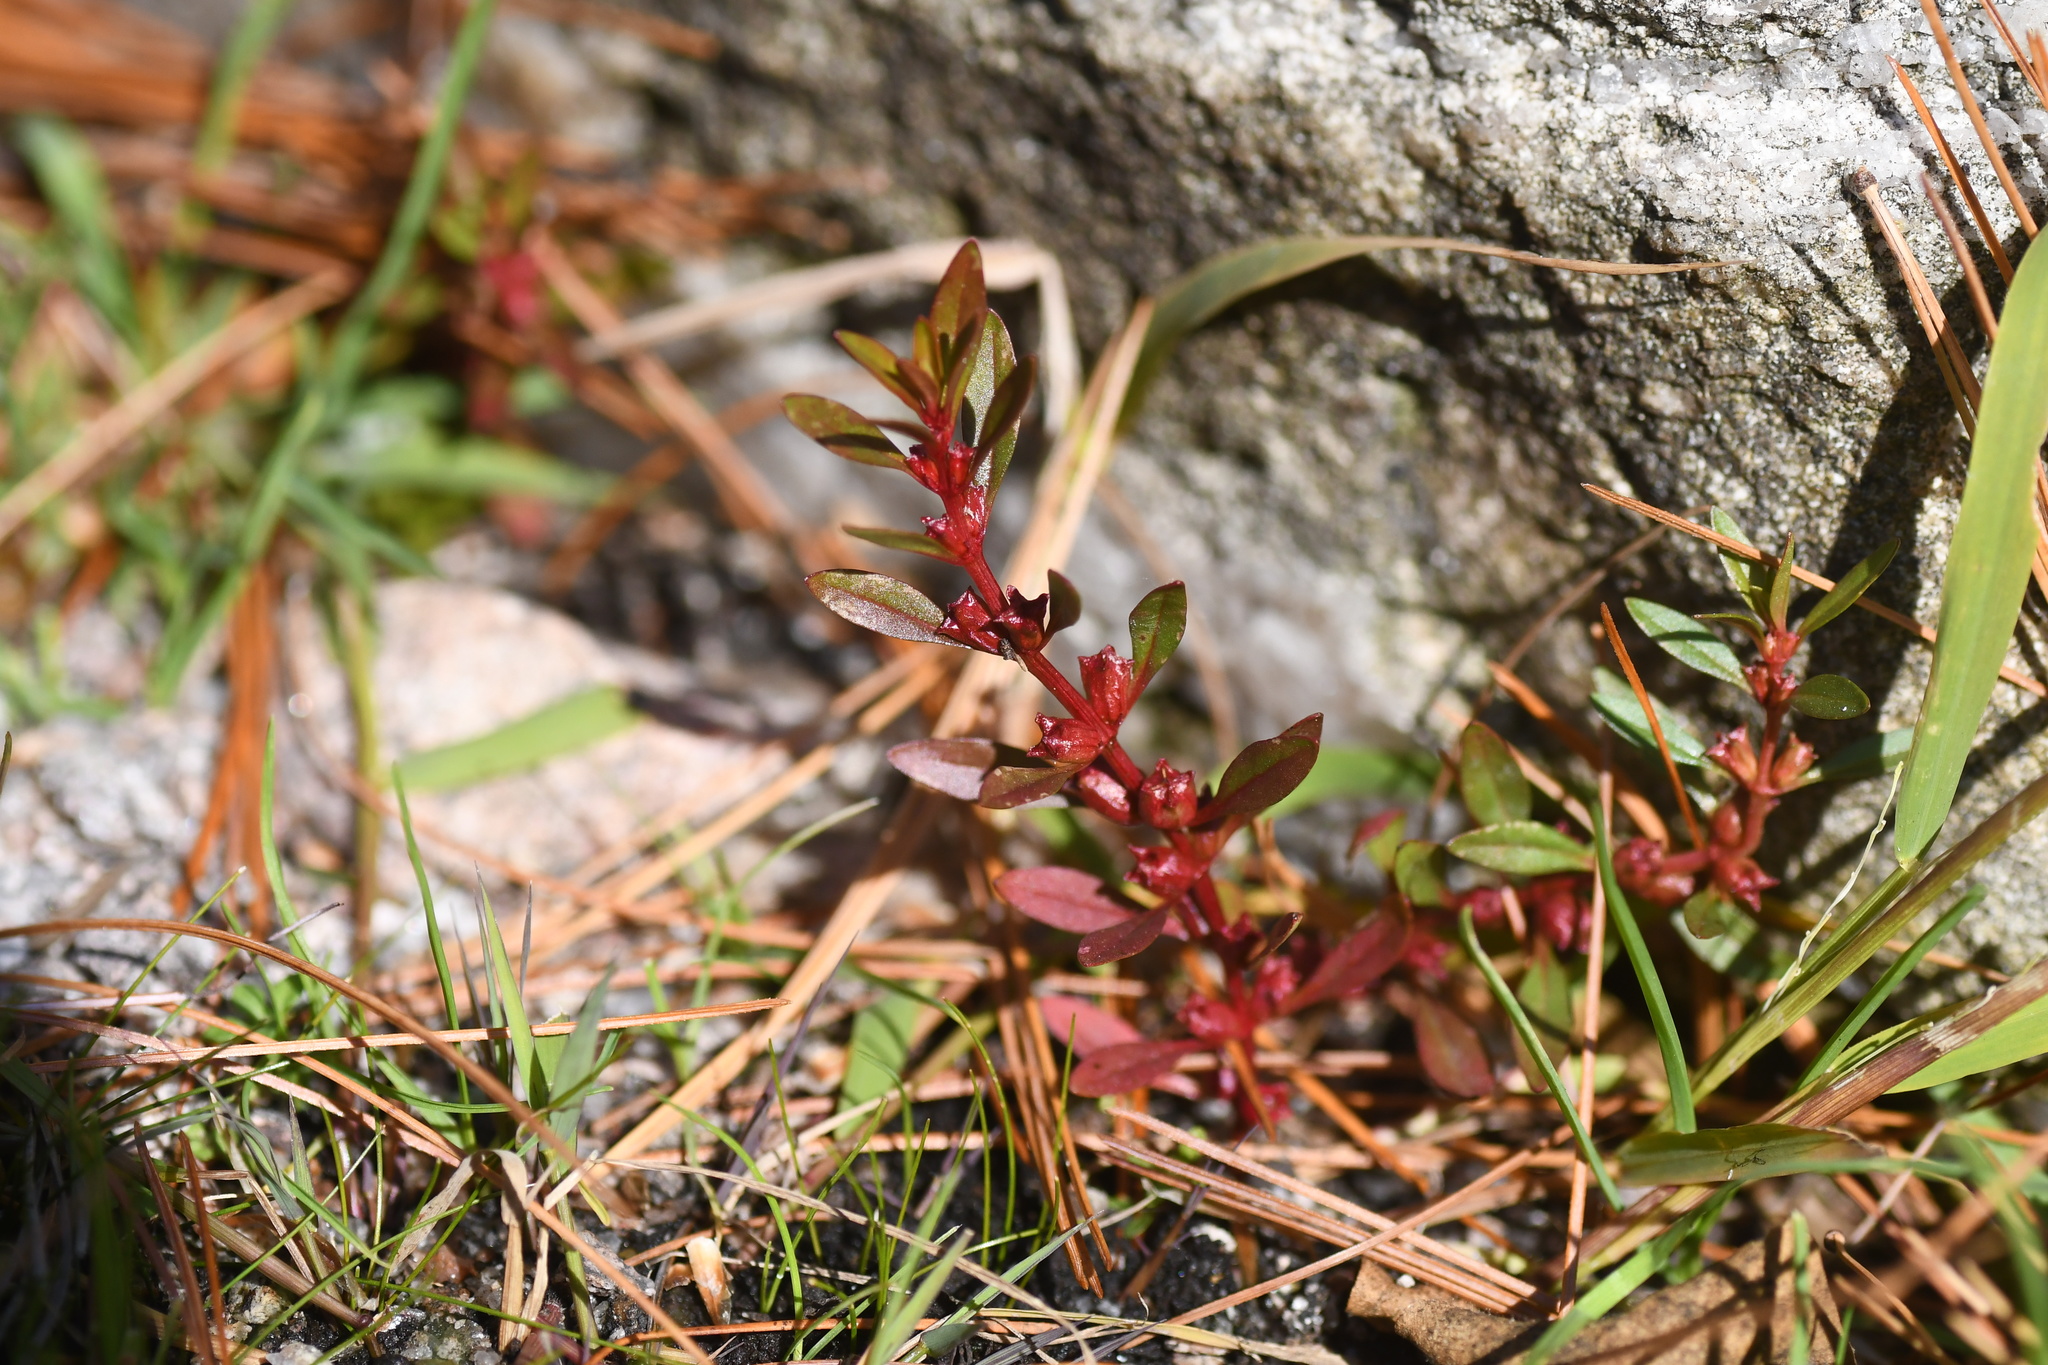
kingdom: Plantae
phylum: Tracheophyta
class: Magnoliopsida
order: Myrtales
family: Lythraceae
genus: Rotala
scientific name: Rotala ramosior
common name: Lowland rotala
